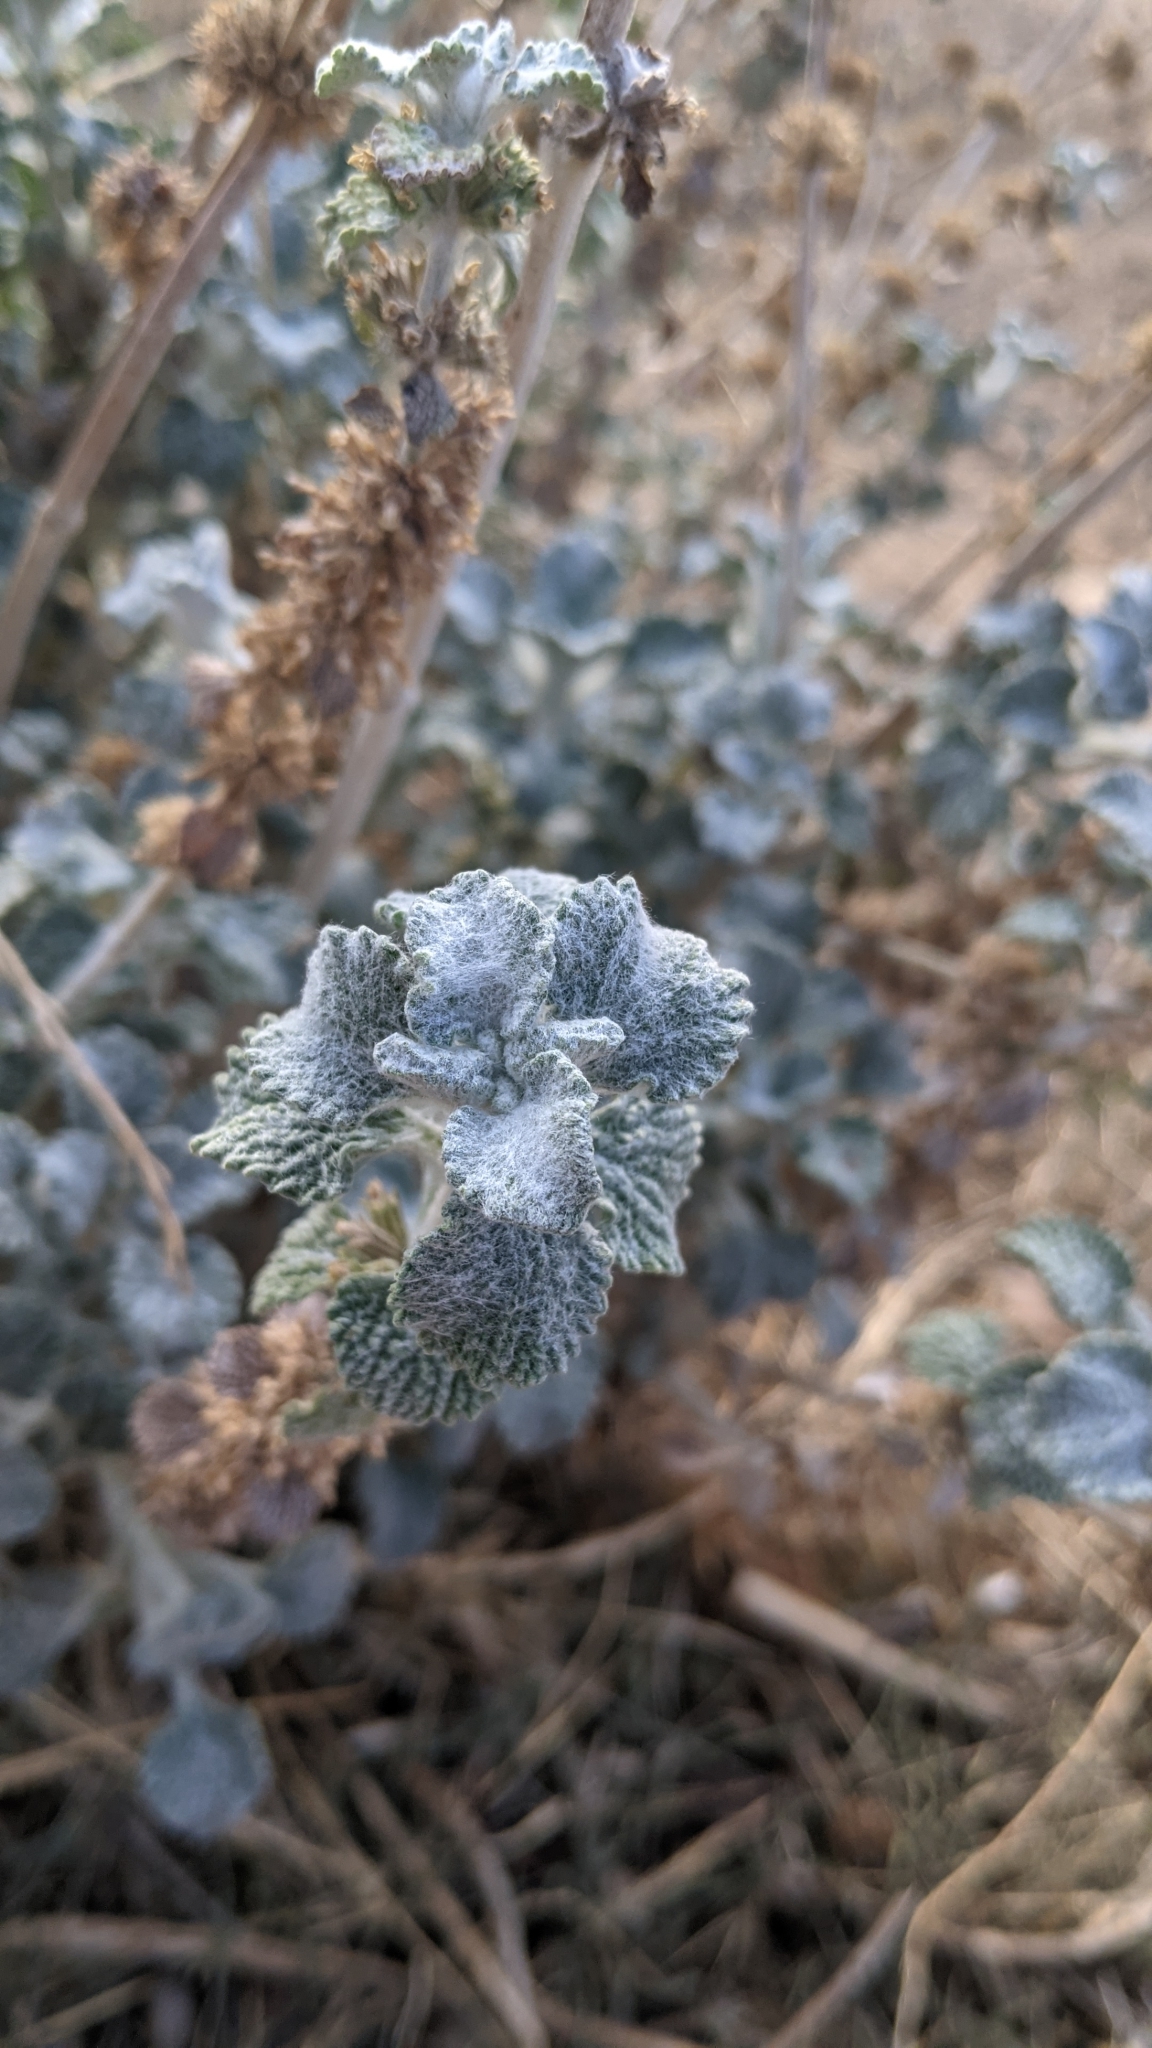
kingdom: Plantae
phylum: Tracheophyta
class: Magnoliopsida
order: Lamiales
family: Lamiaceae
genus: Marrubium
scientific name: Marrubium vulgare
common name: Horehound
